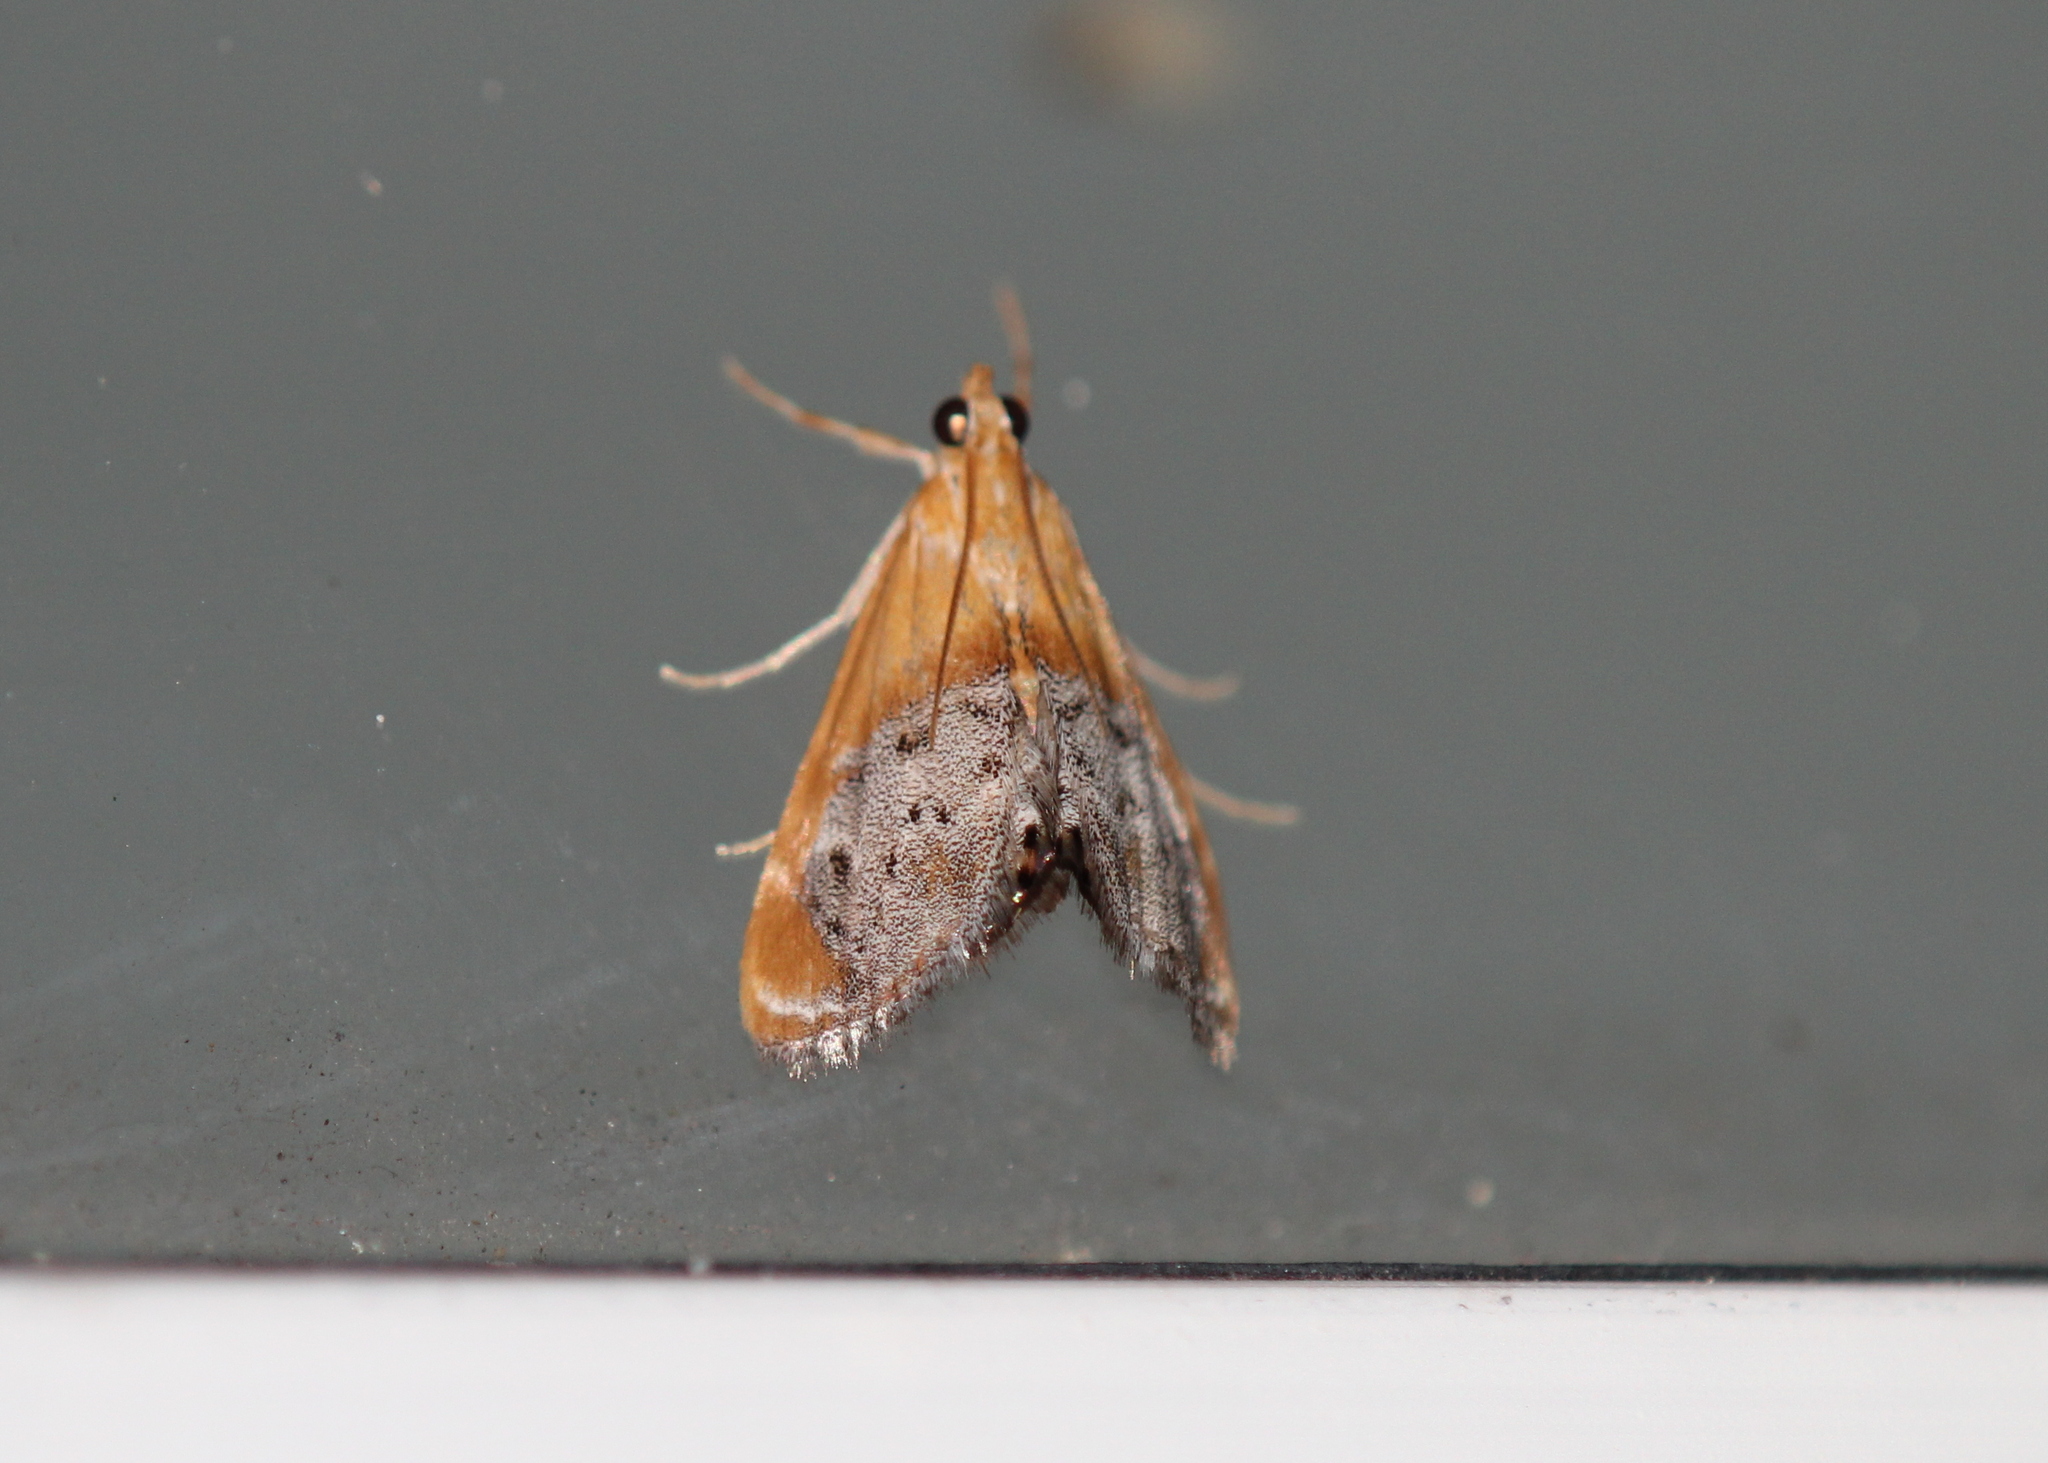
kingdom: Animalia
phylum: Arthropoda
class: Insecta
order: Lepidoptera
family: Crambidae
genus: Chalcoela
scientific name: Chalcoela iphitalis
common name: Sooty-winged chalcoela moth
